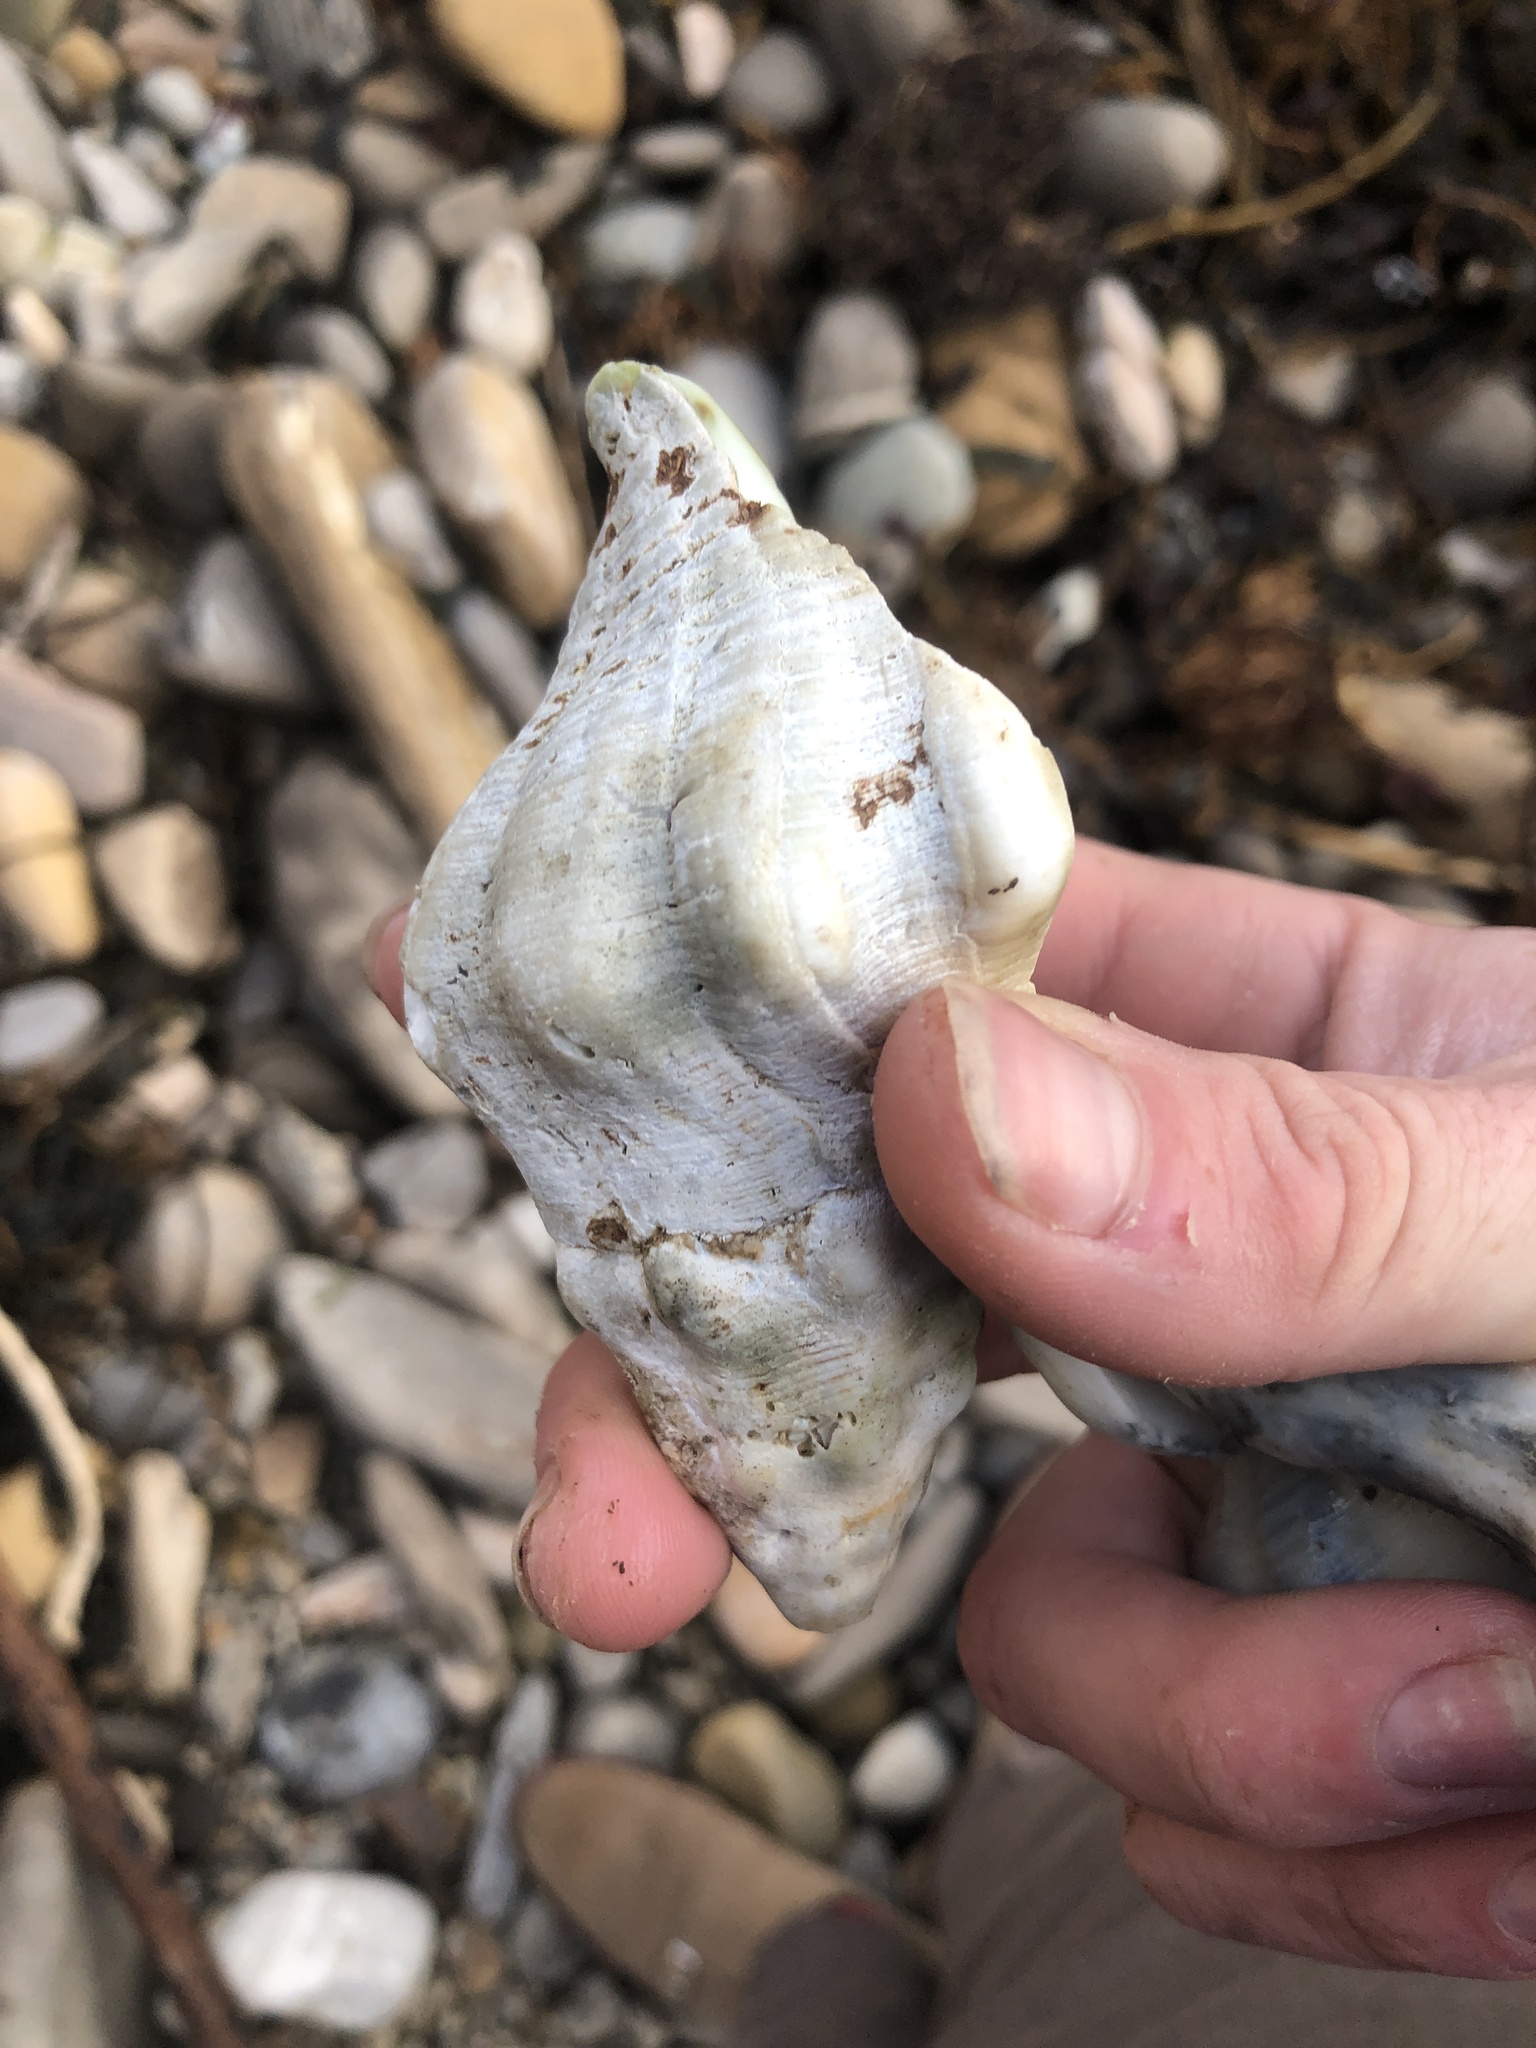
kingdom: Animalia
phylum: Mollusca
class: Gastropoda
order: Neogastropoda
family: Austrosiphonidae
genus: Kelletia
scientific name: Kelletia kelletii
